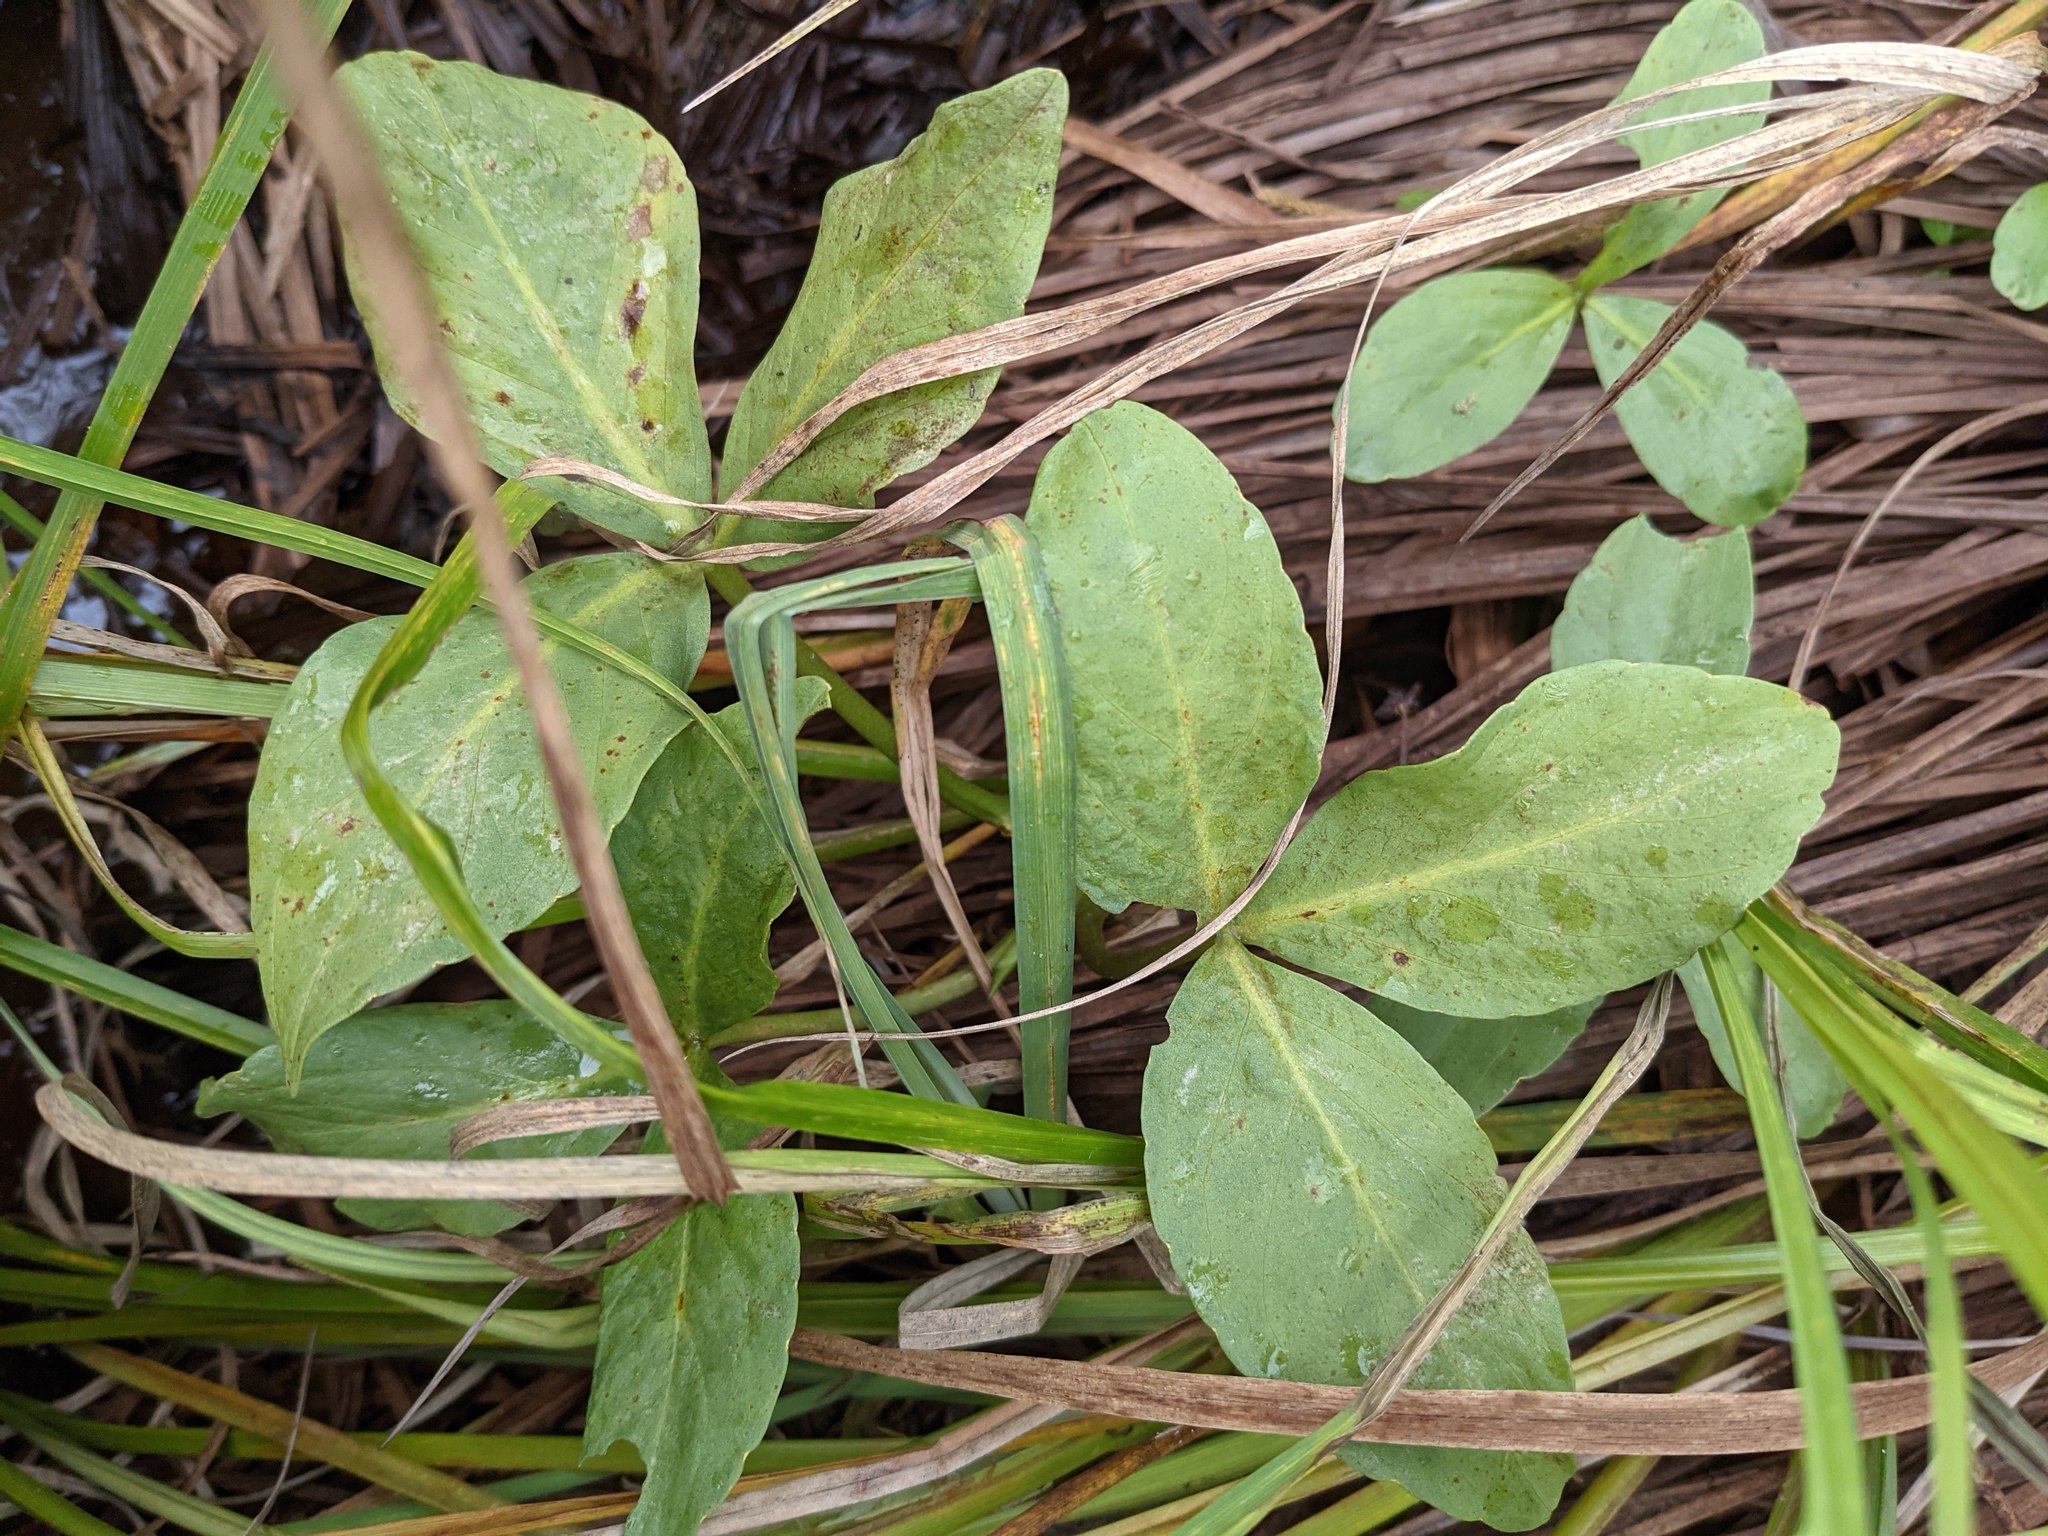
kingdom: Plantae
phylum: Tracheophyta
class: Magnoliopsida
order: Asterales
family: Menyanthaceae
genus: Menyanthes
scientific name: Menyanthes trifoliata
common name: Bogbean
